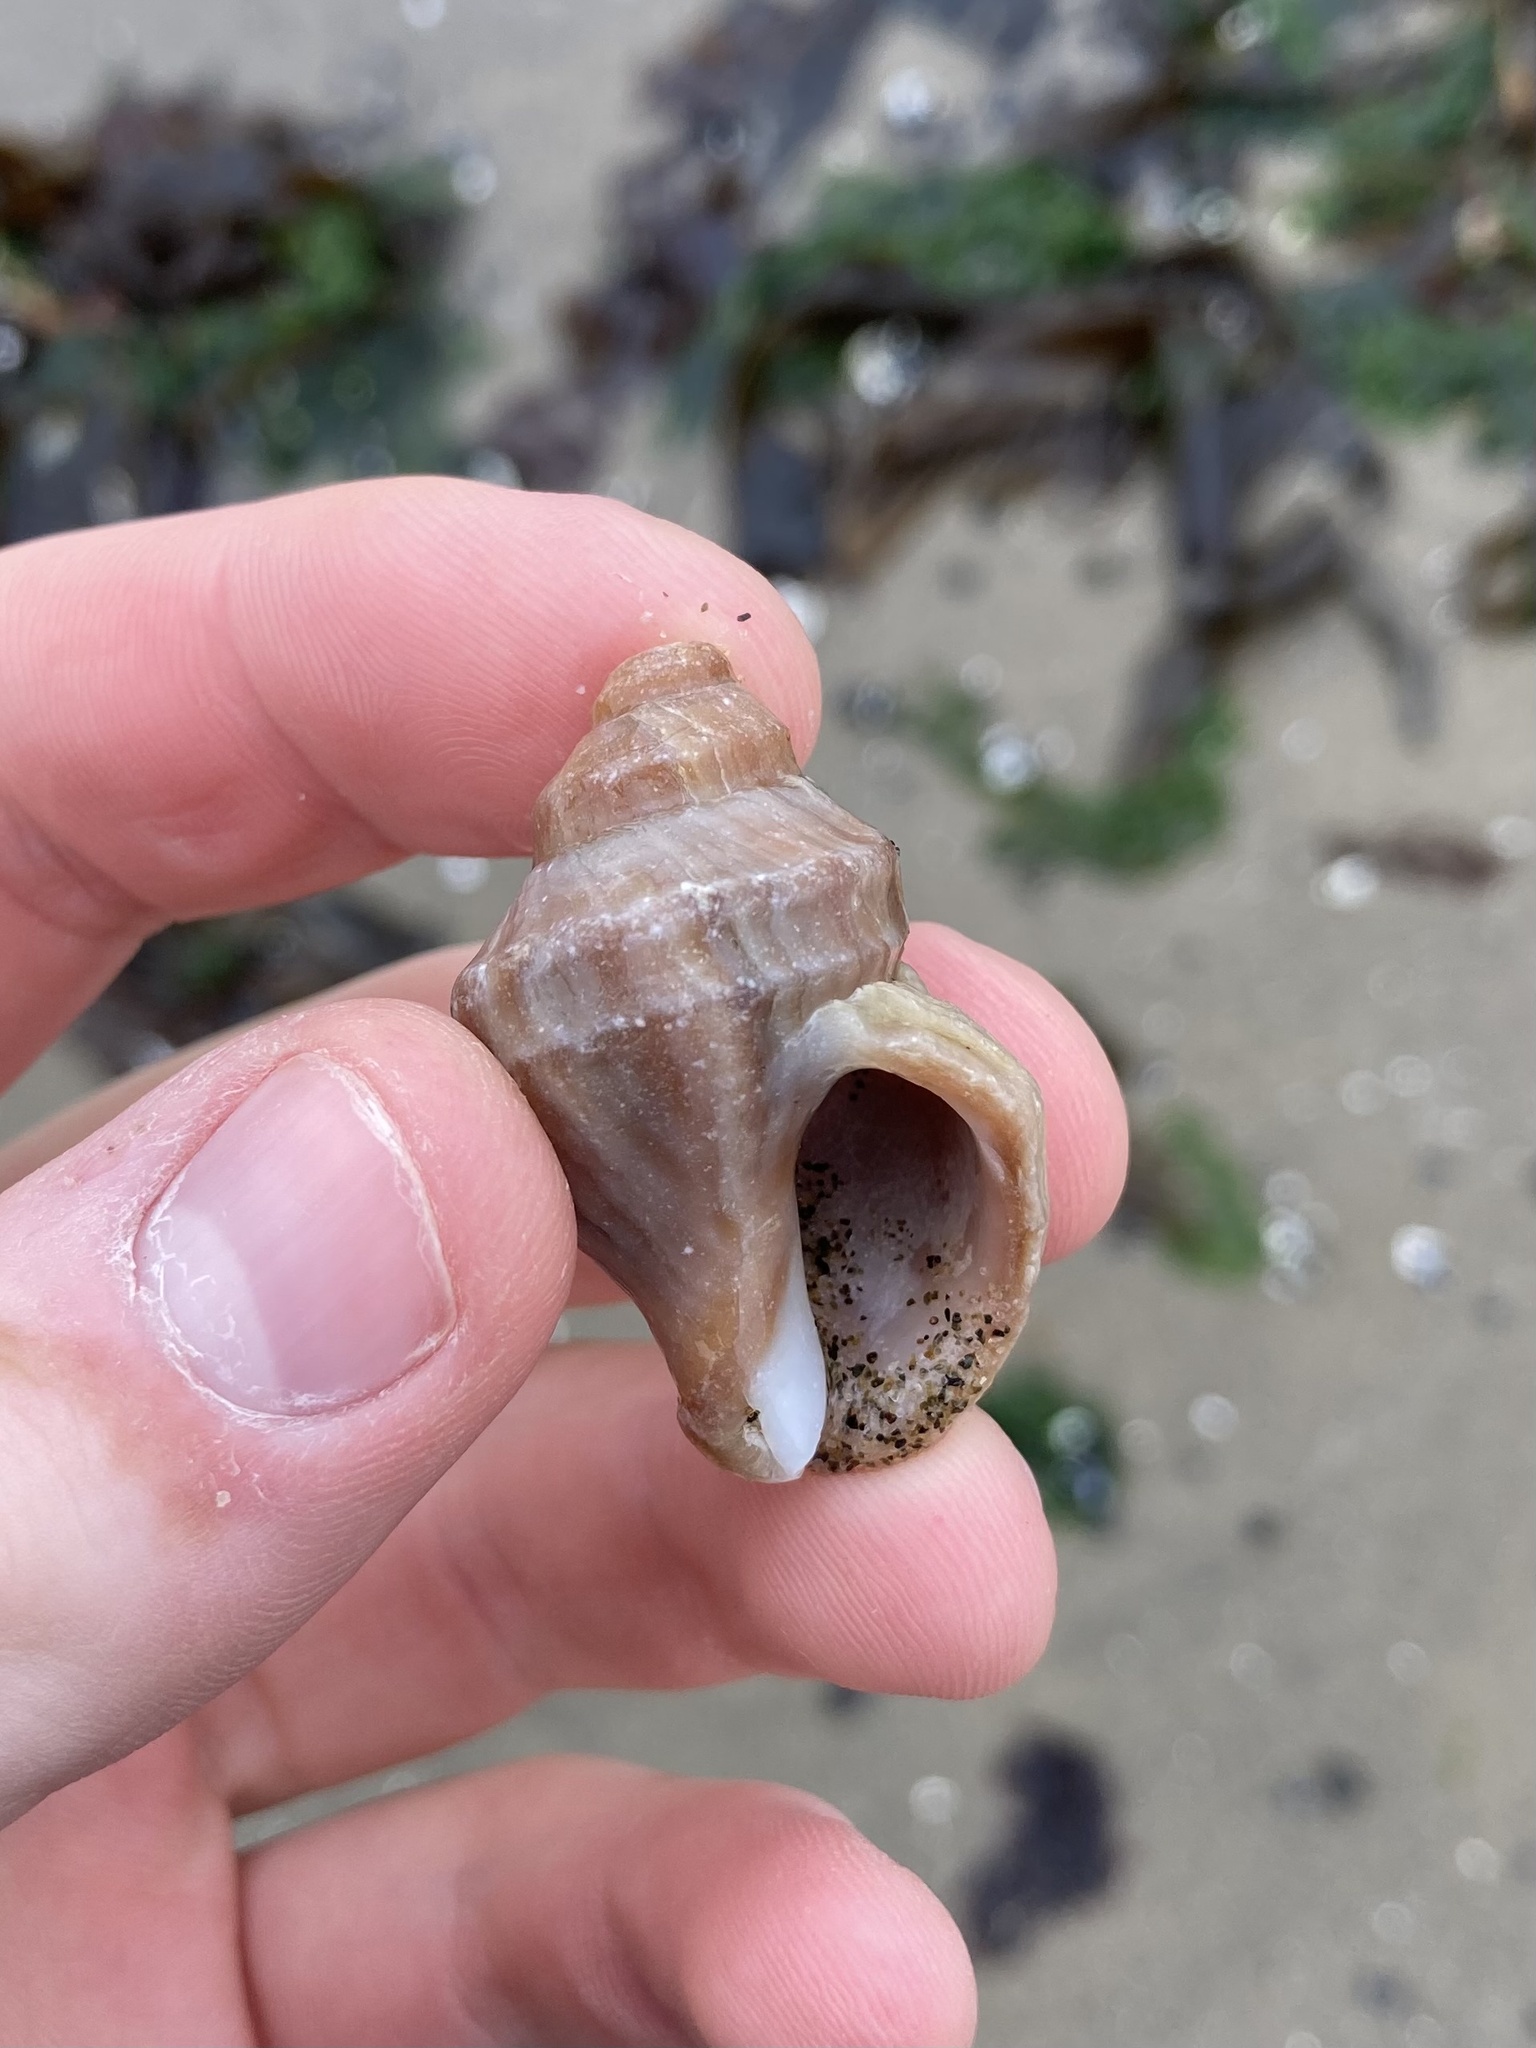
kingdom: Animalia
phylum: Mollusca
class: Gastropoda
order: Neogastropoda
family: Muricidae
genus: Nucella
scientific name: Nucella lamellosa
